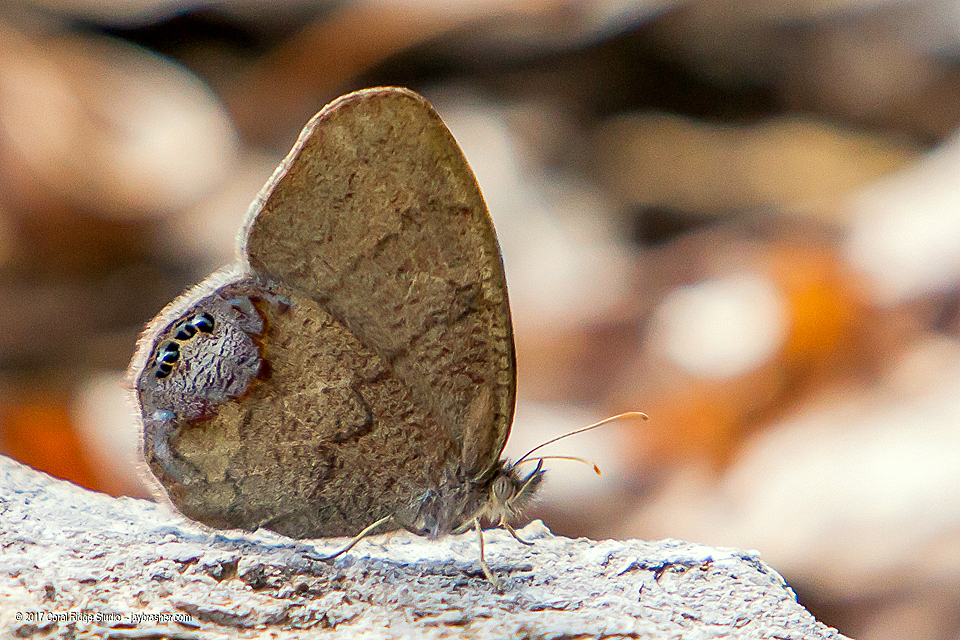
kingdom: Animalia
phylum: Arthropoda
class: Insecta
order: Lepidoptera
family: Nymphalidae
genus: Euptychia
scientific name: Euptychia cornelius
